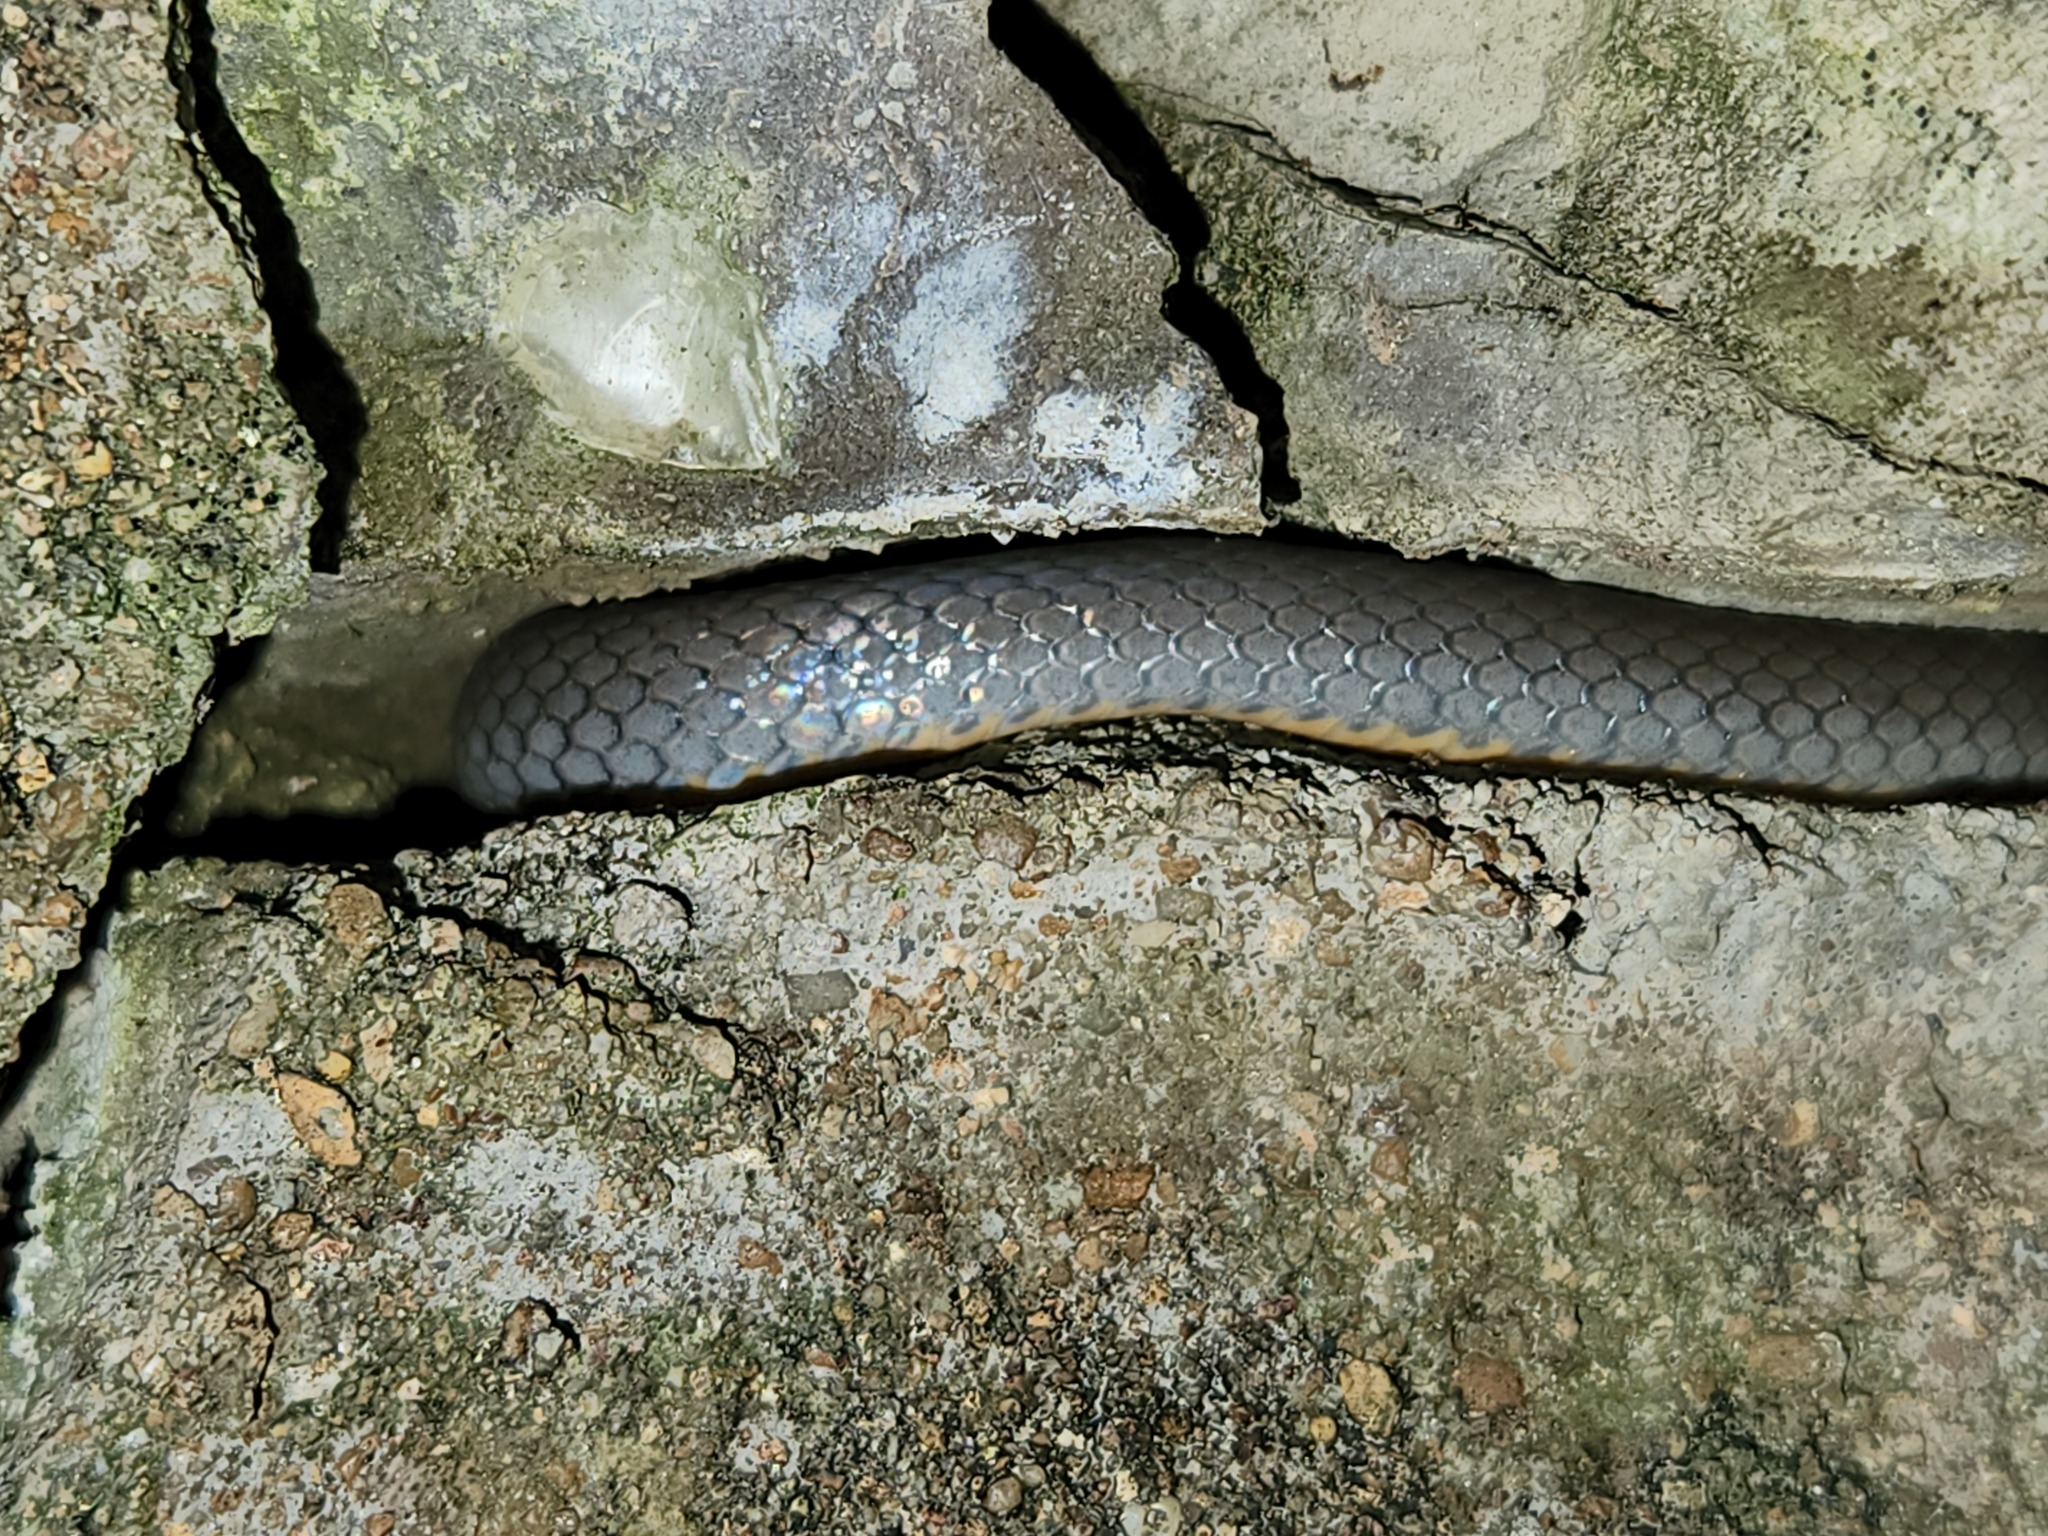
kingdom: Animalia
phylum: Chordata
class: Squamata
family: Colubridae
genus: Diadophis
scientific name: Diadophis punctatus
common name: Ringneck snake
